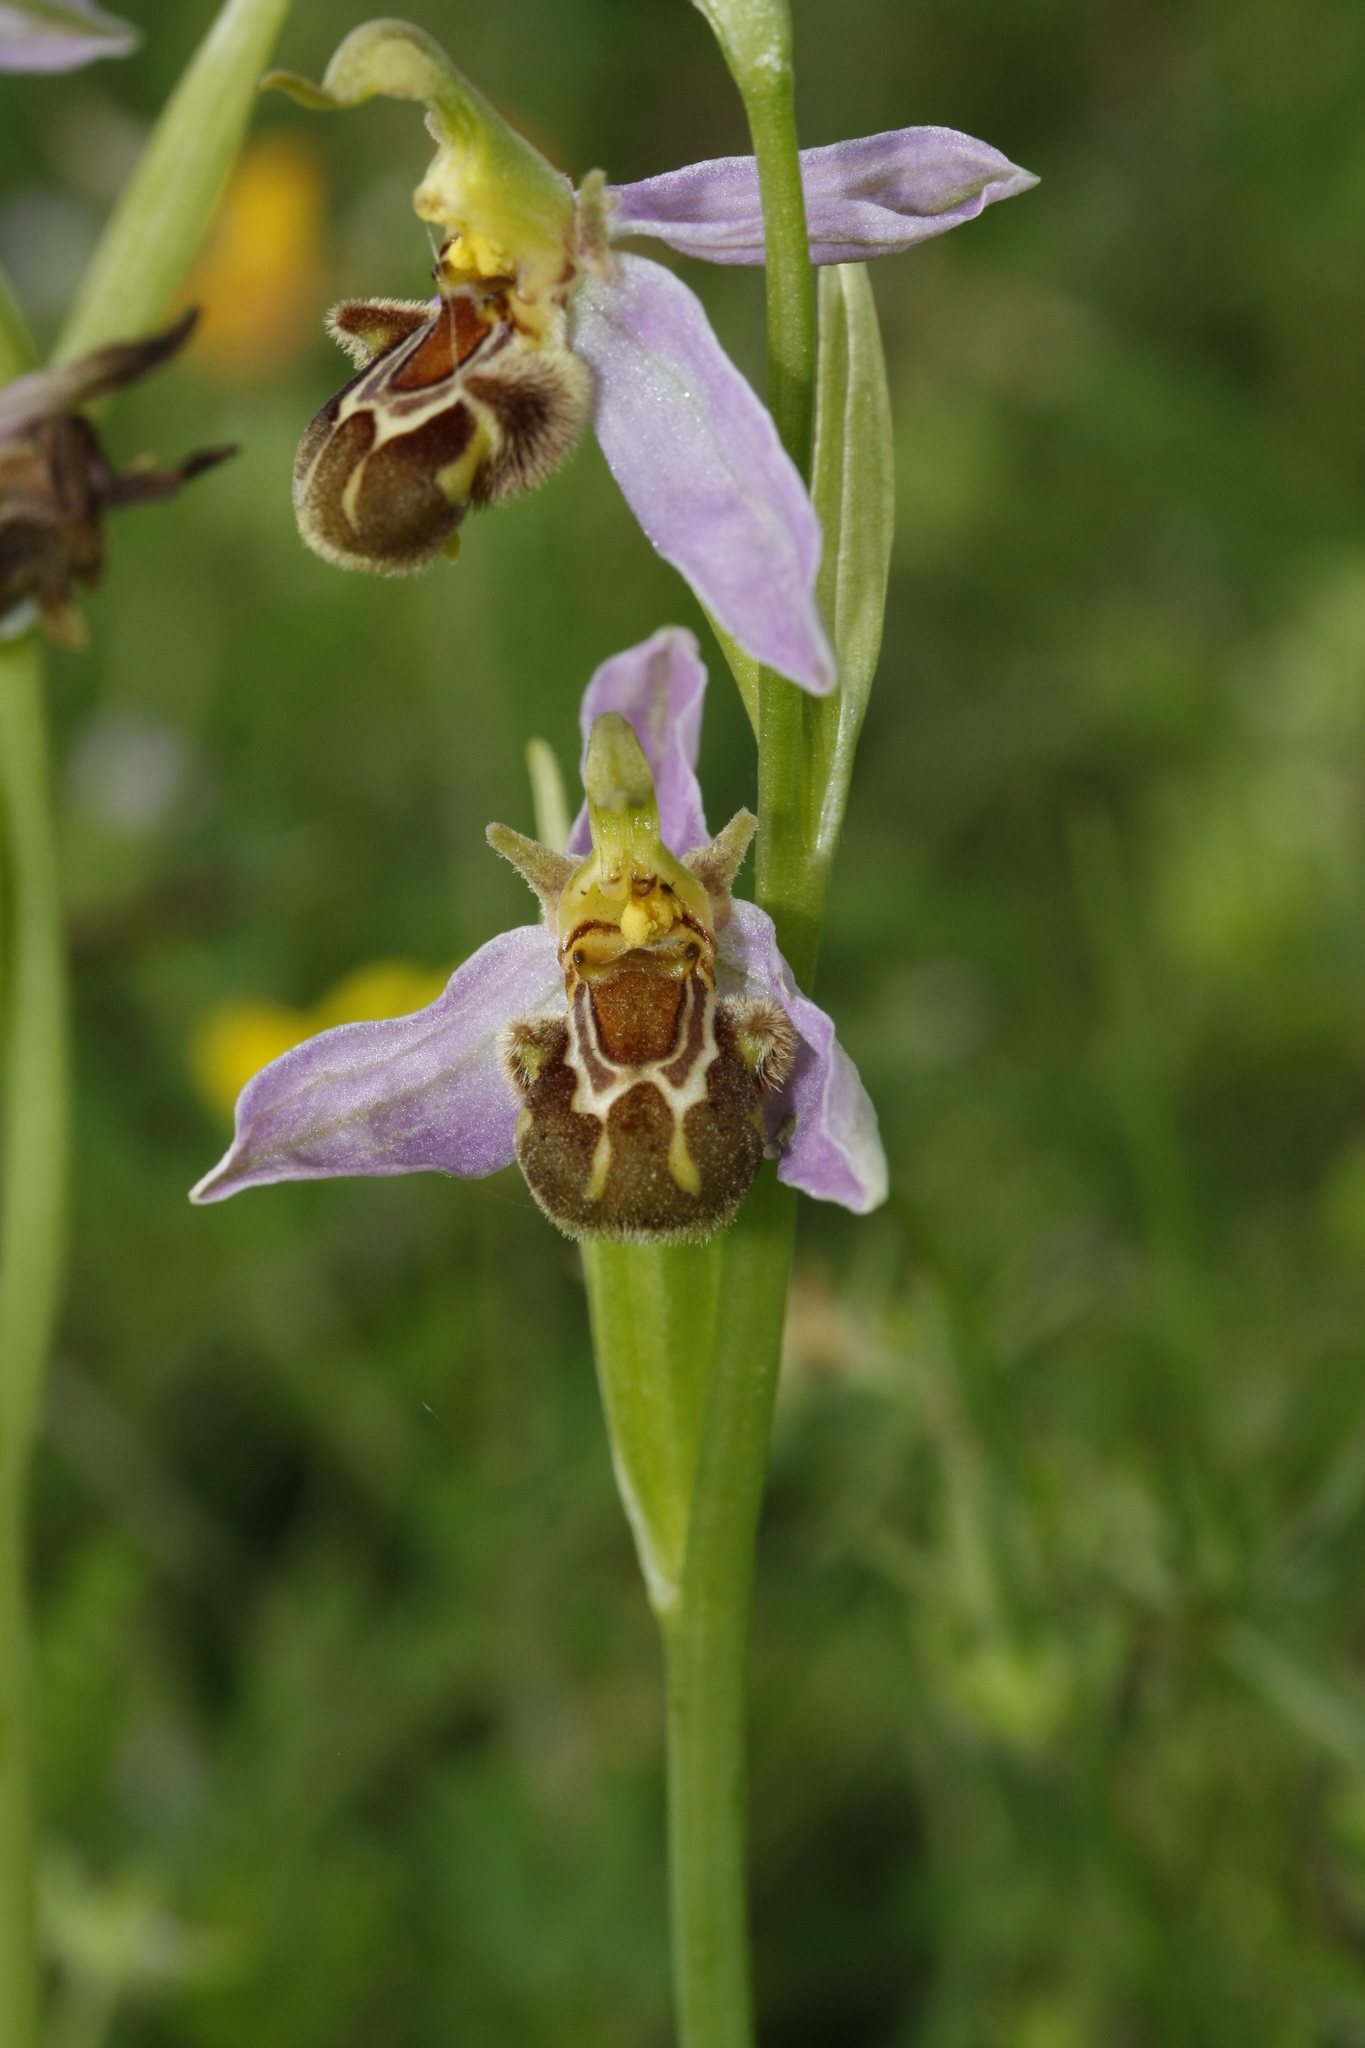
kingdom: Plantae
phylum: Tracheophyta
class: Liliopsida
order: Asparagales
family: Orchidaceae
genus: Ophrys
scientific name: Ophrys apifera
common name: Bee orchid
